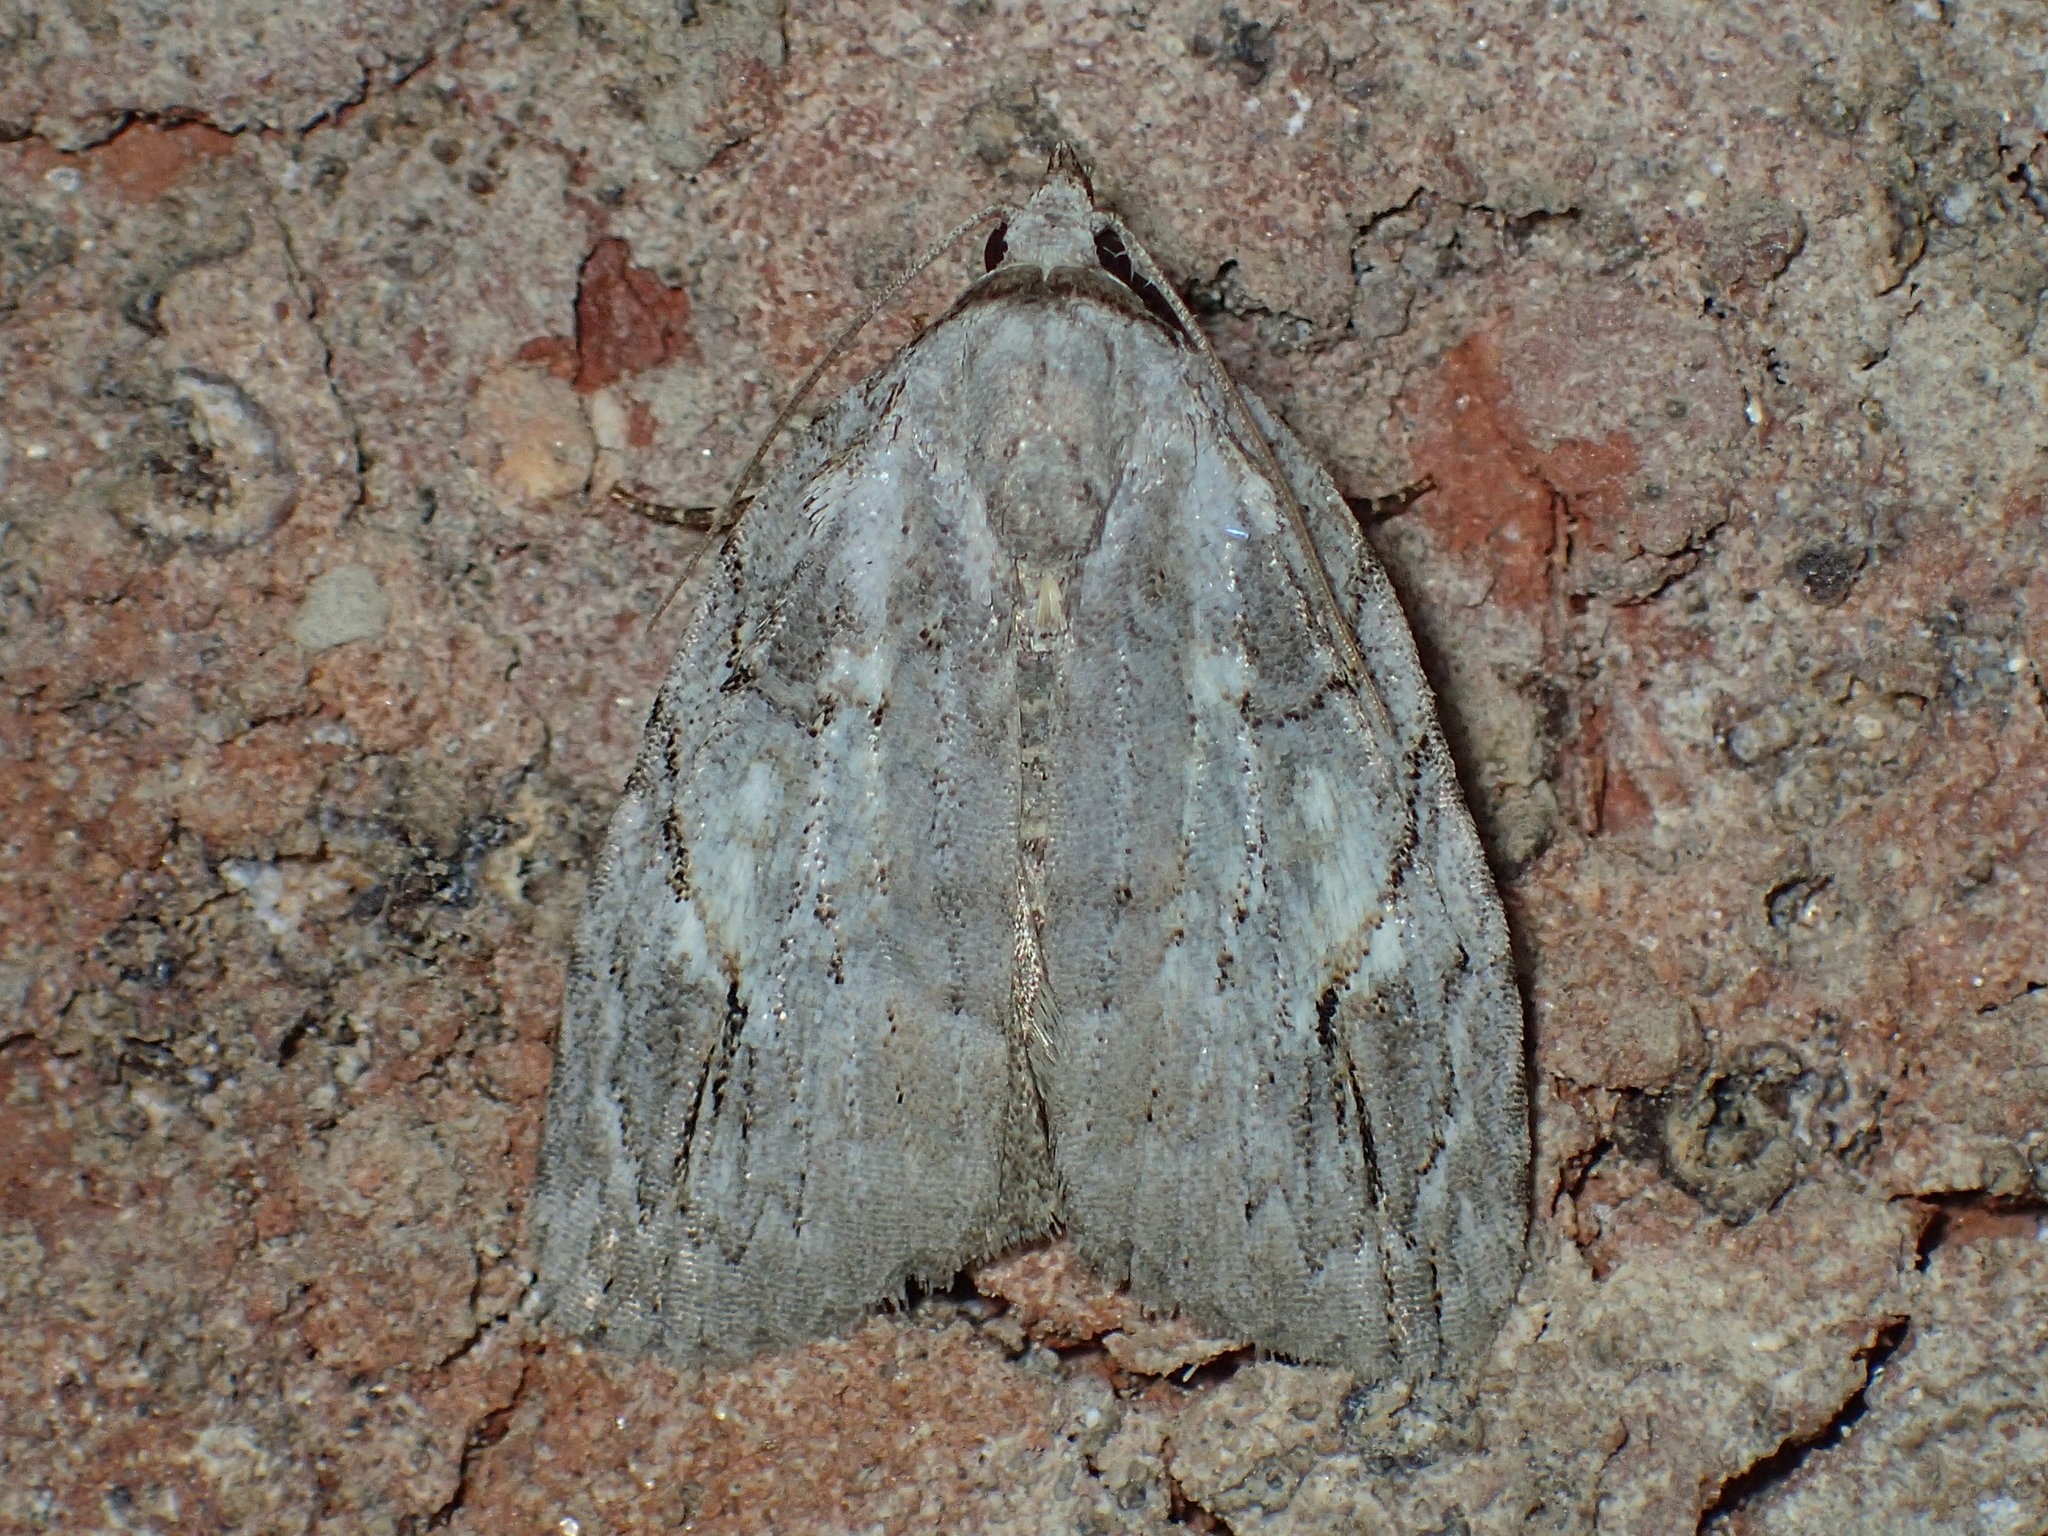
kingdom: Animalia
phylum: Arthropoda
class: Insecta
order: Lepidoptera
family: Noctuidae
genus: Balsa
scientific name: Balsa labecula
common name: White-blotched balsa moth
